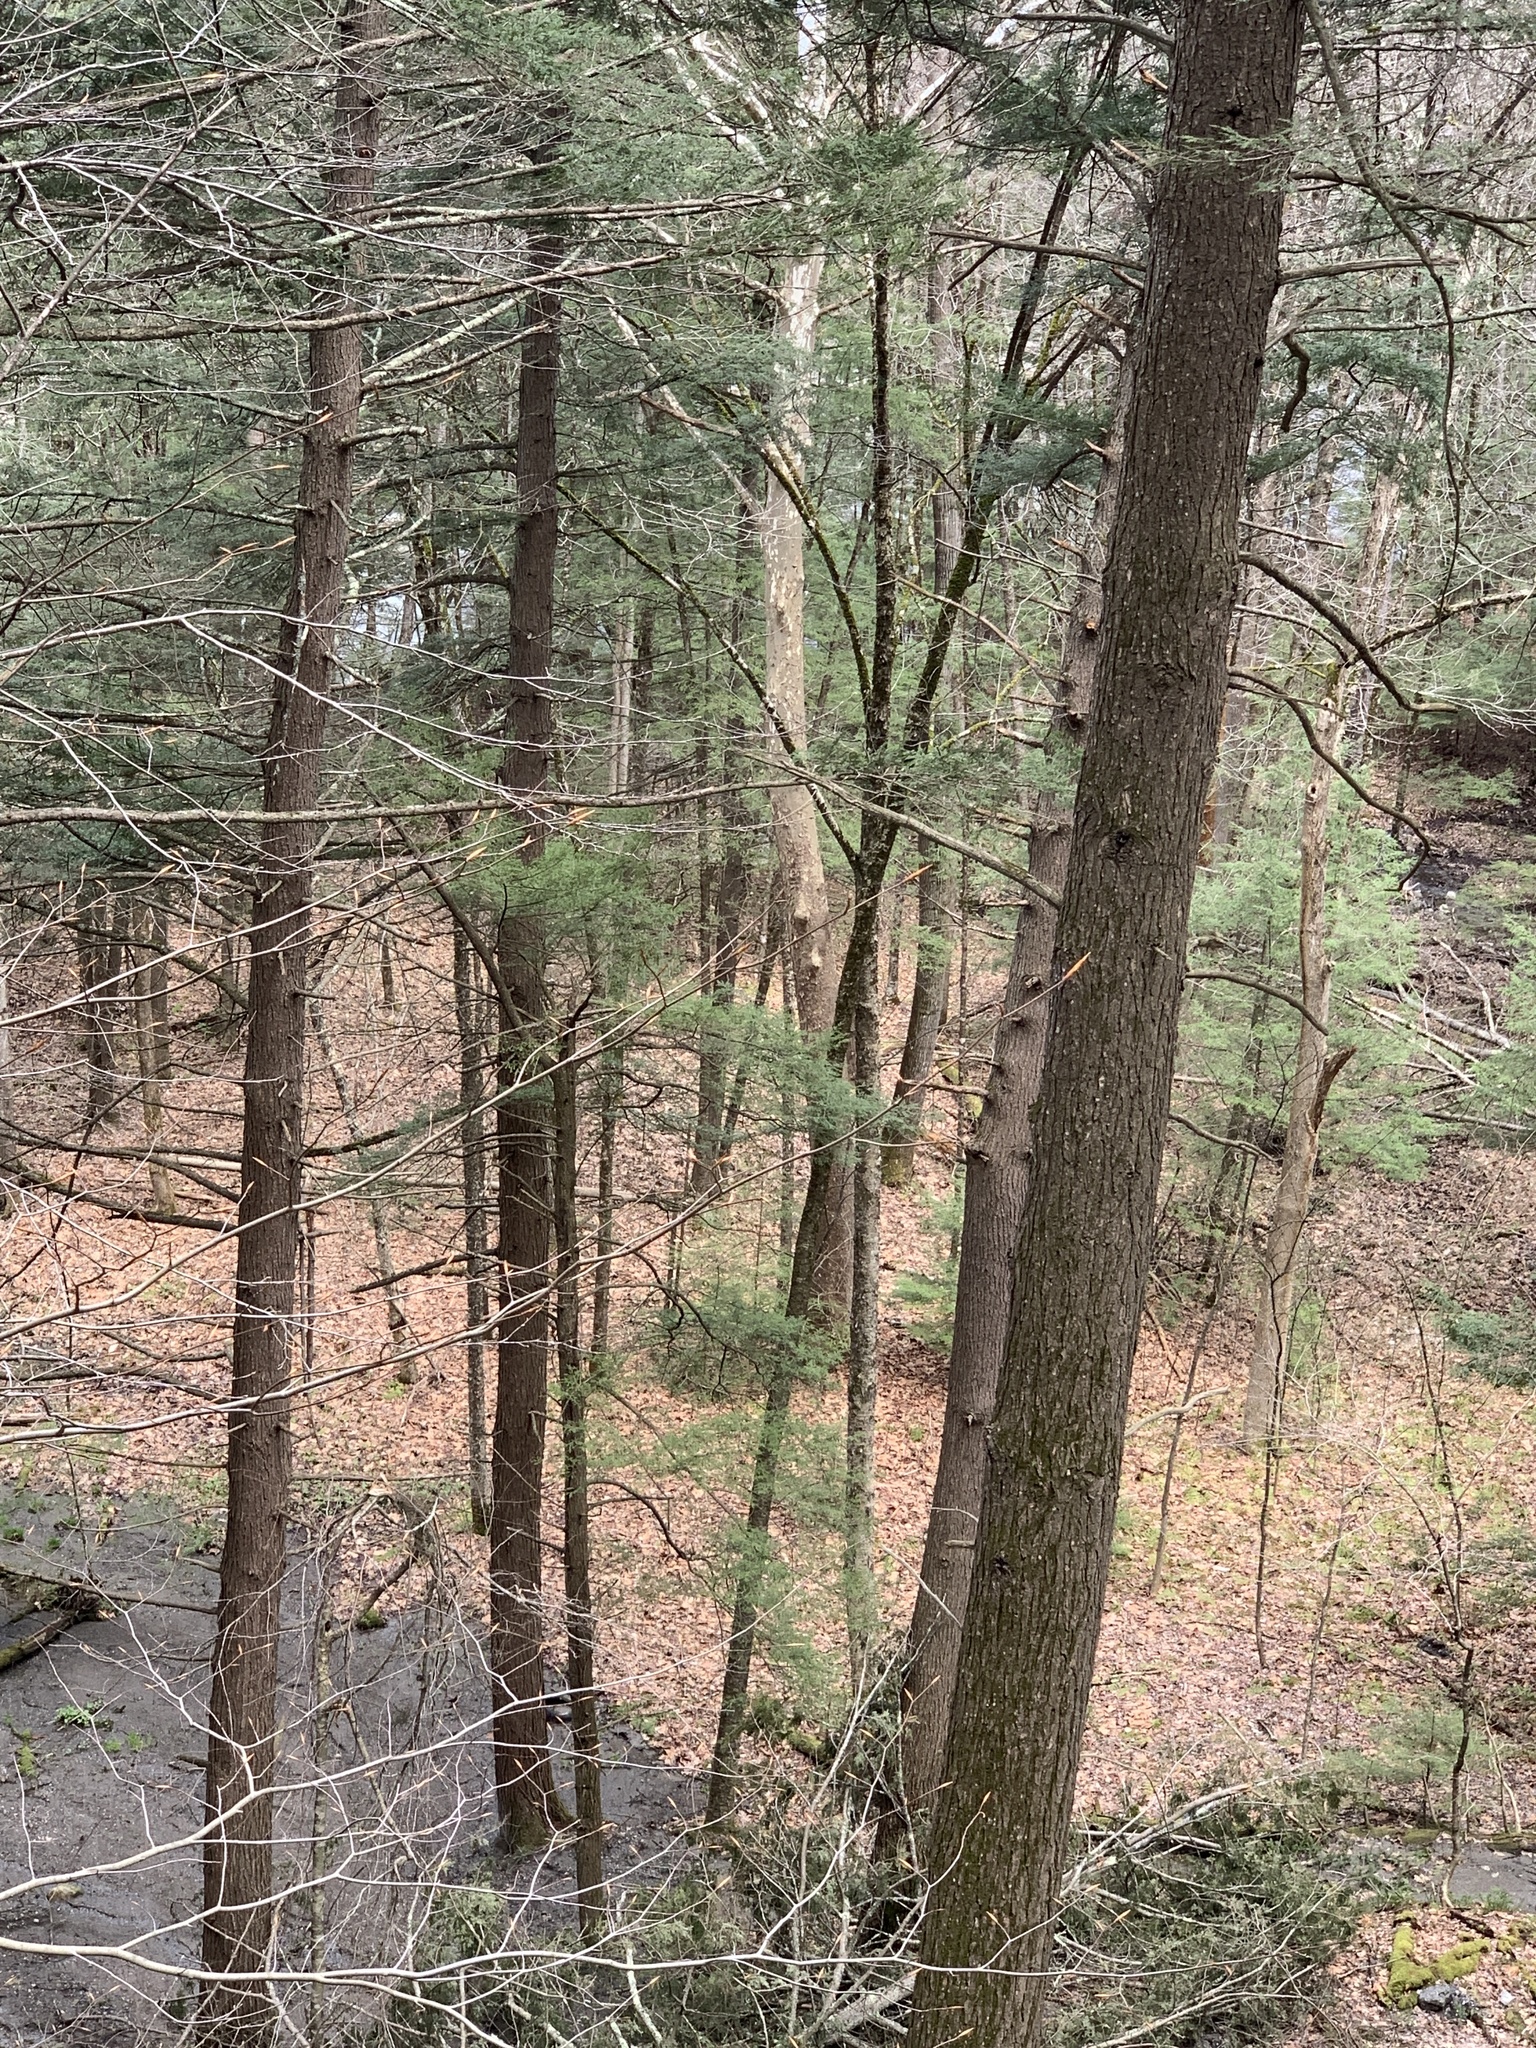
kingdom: Plantae
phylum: Tracheophyta
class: Magnoliopsida
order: Proteales
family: Platanaceae
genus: Platanus
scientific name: Platanus occidentalis
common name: American sycamore
